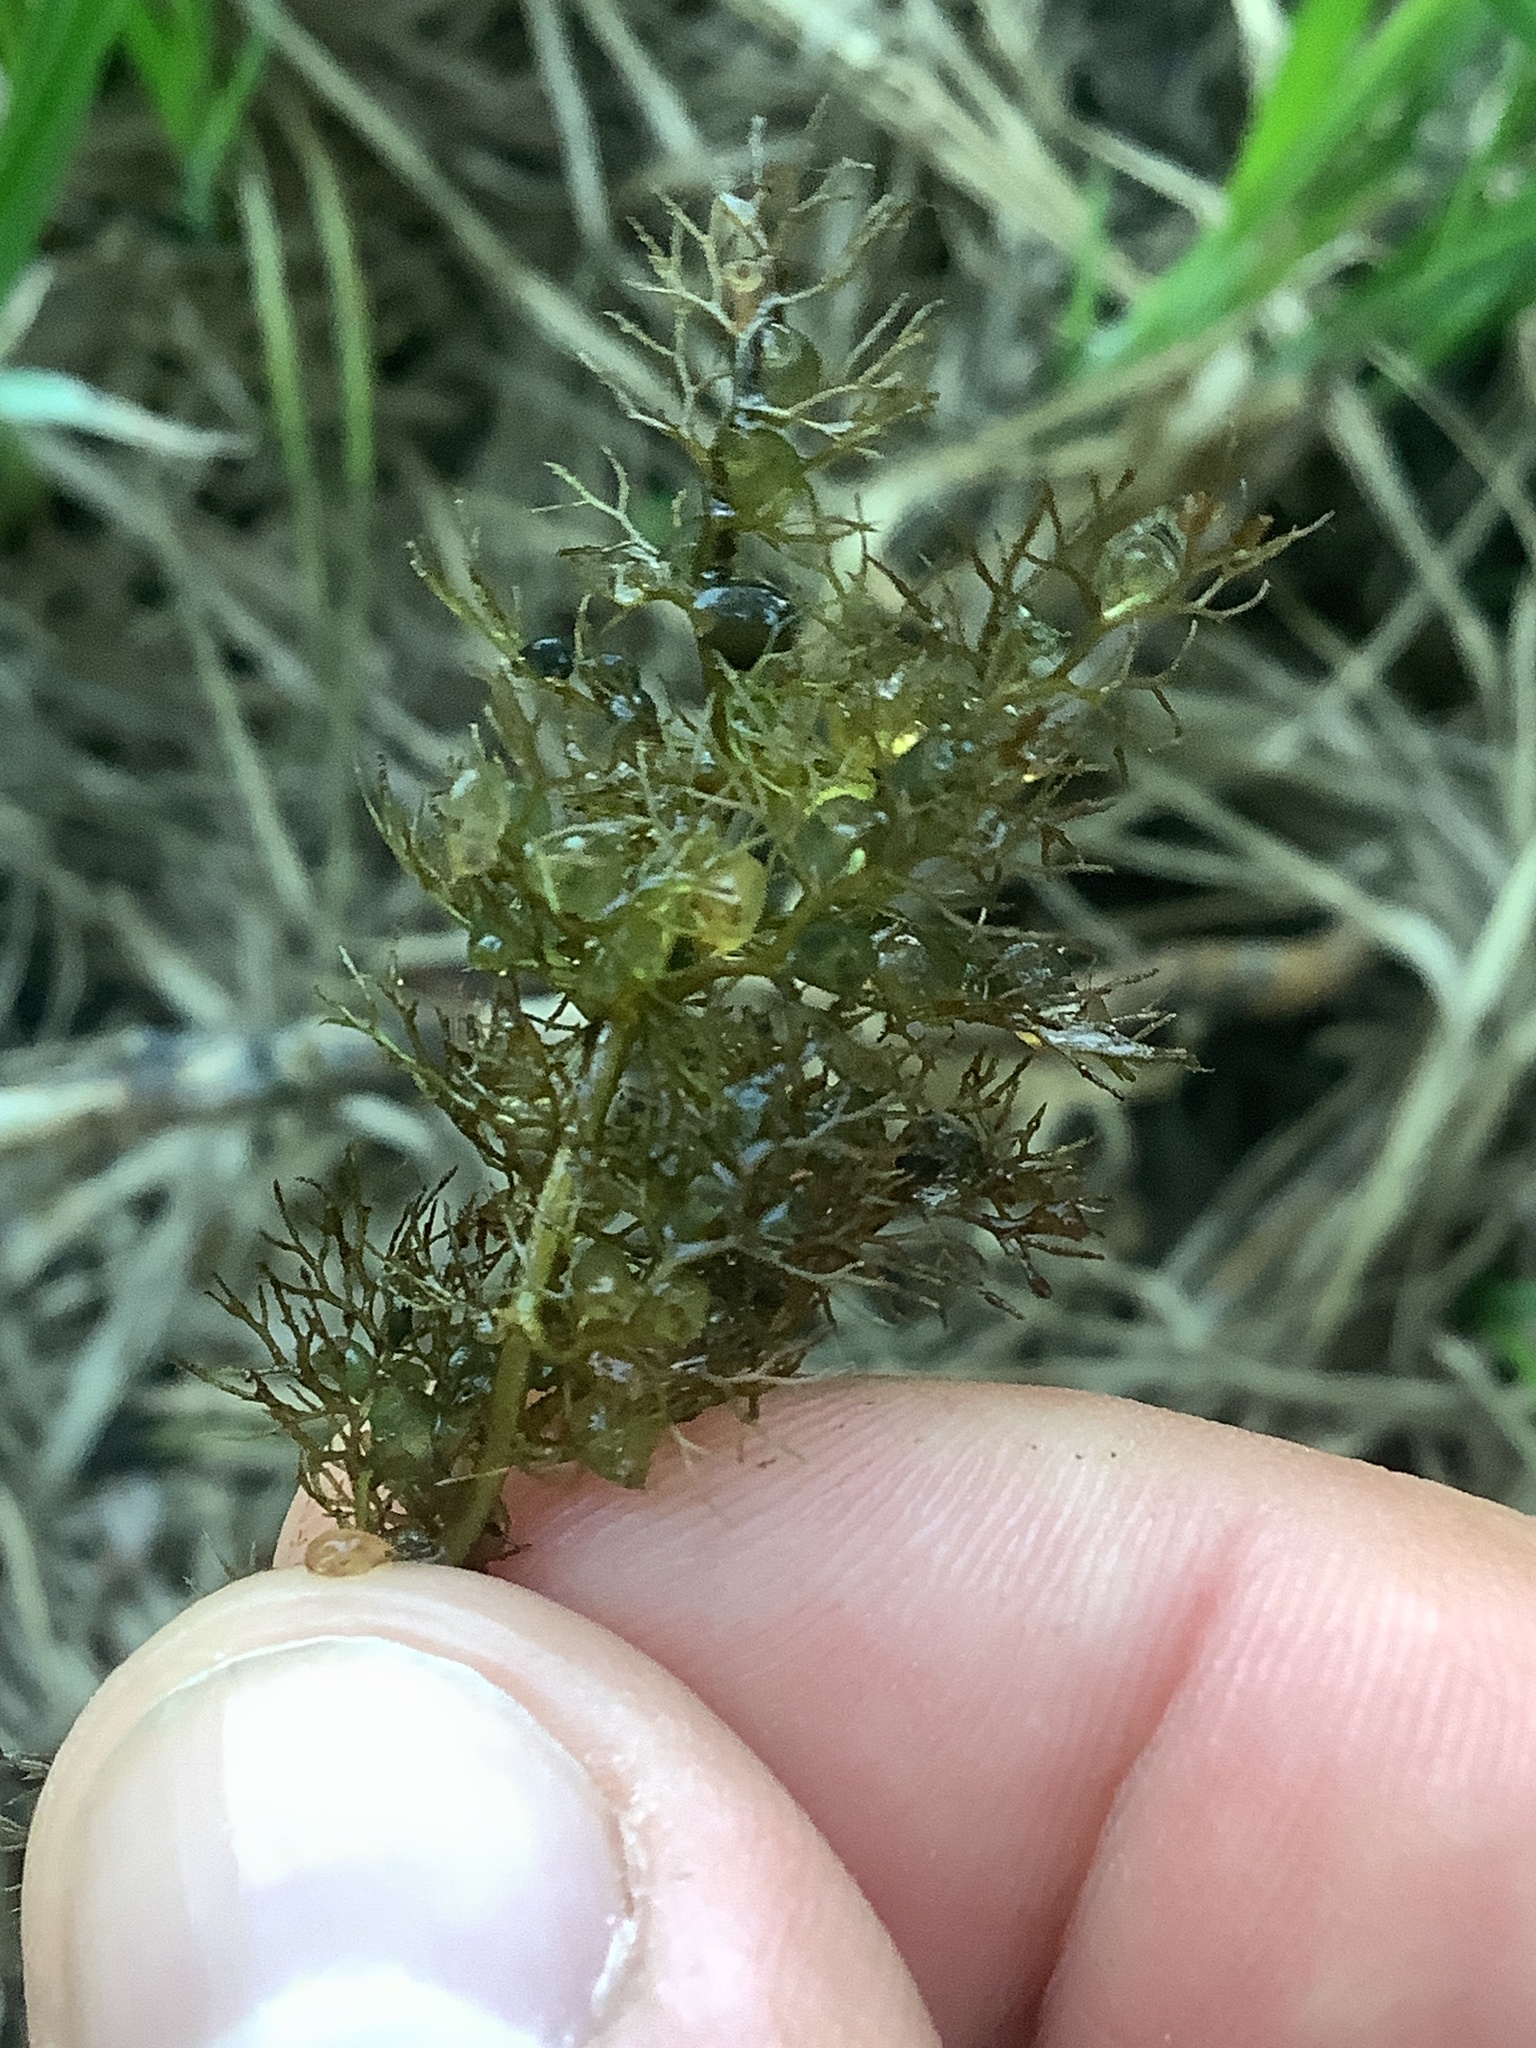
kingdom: Plantae
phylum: Tracheophyta
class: Magnoliopsida
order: Lamiales
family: Lentibulariaceae
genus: Utricularia
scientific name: Utricularia vulgaris
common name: Greater bladderwort
